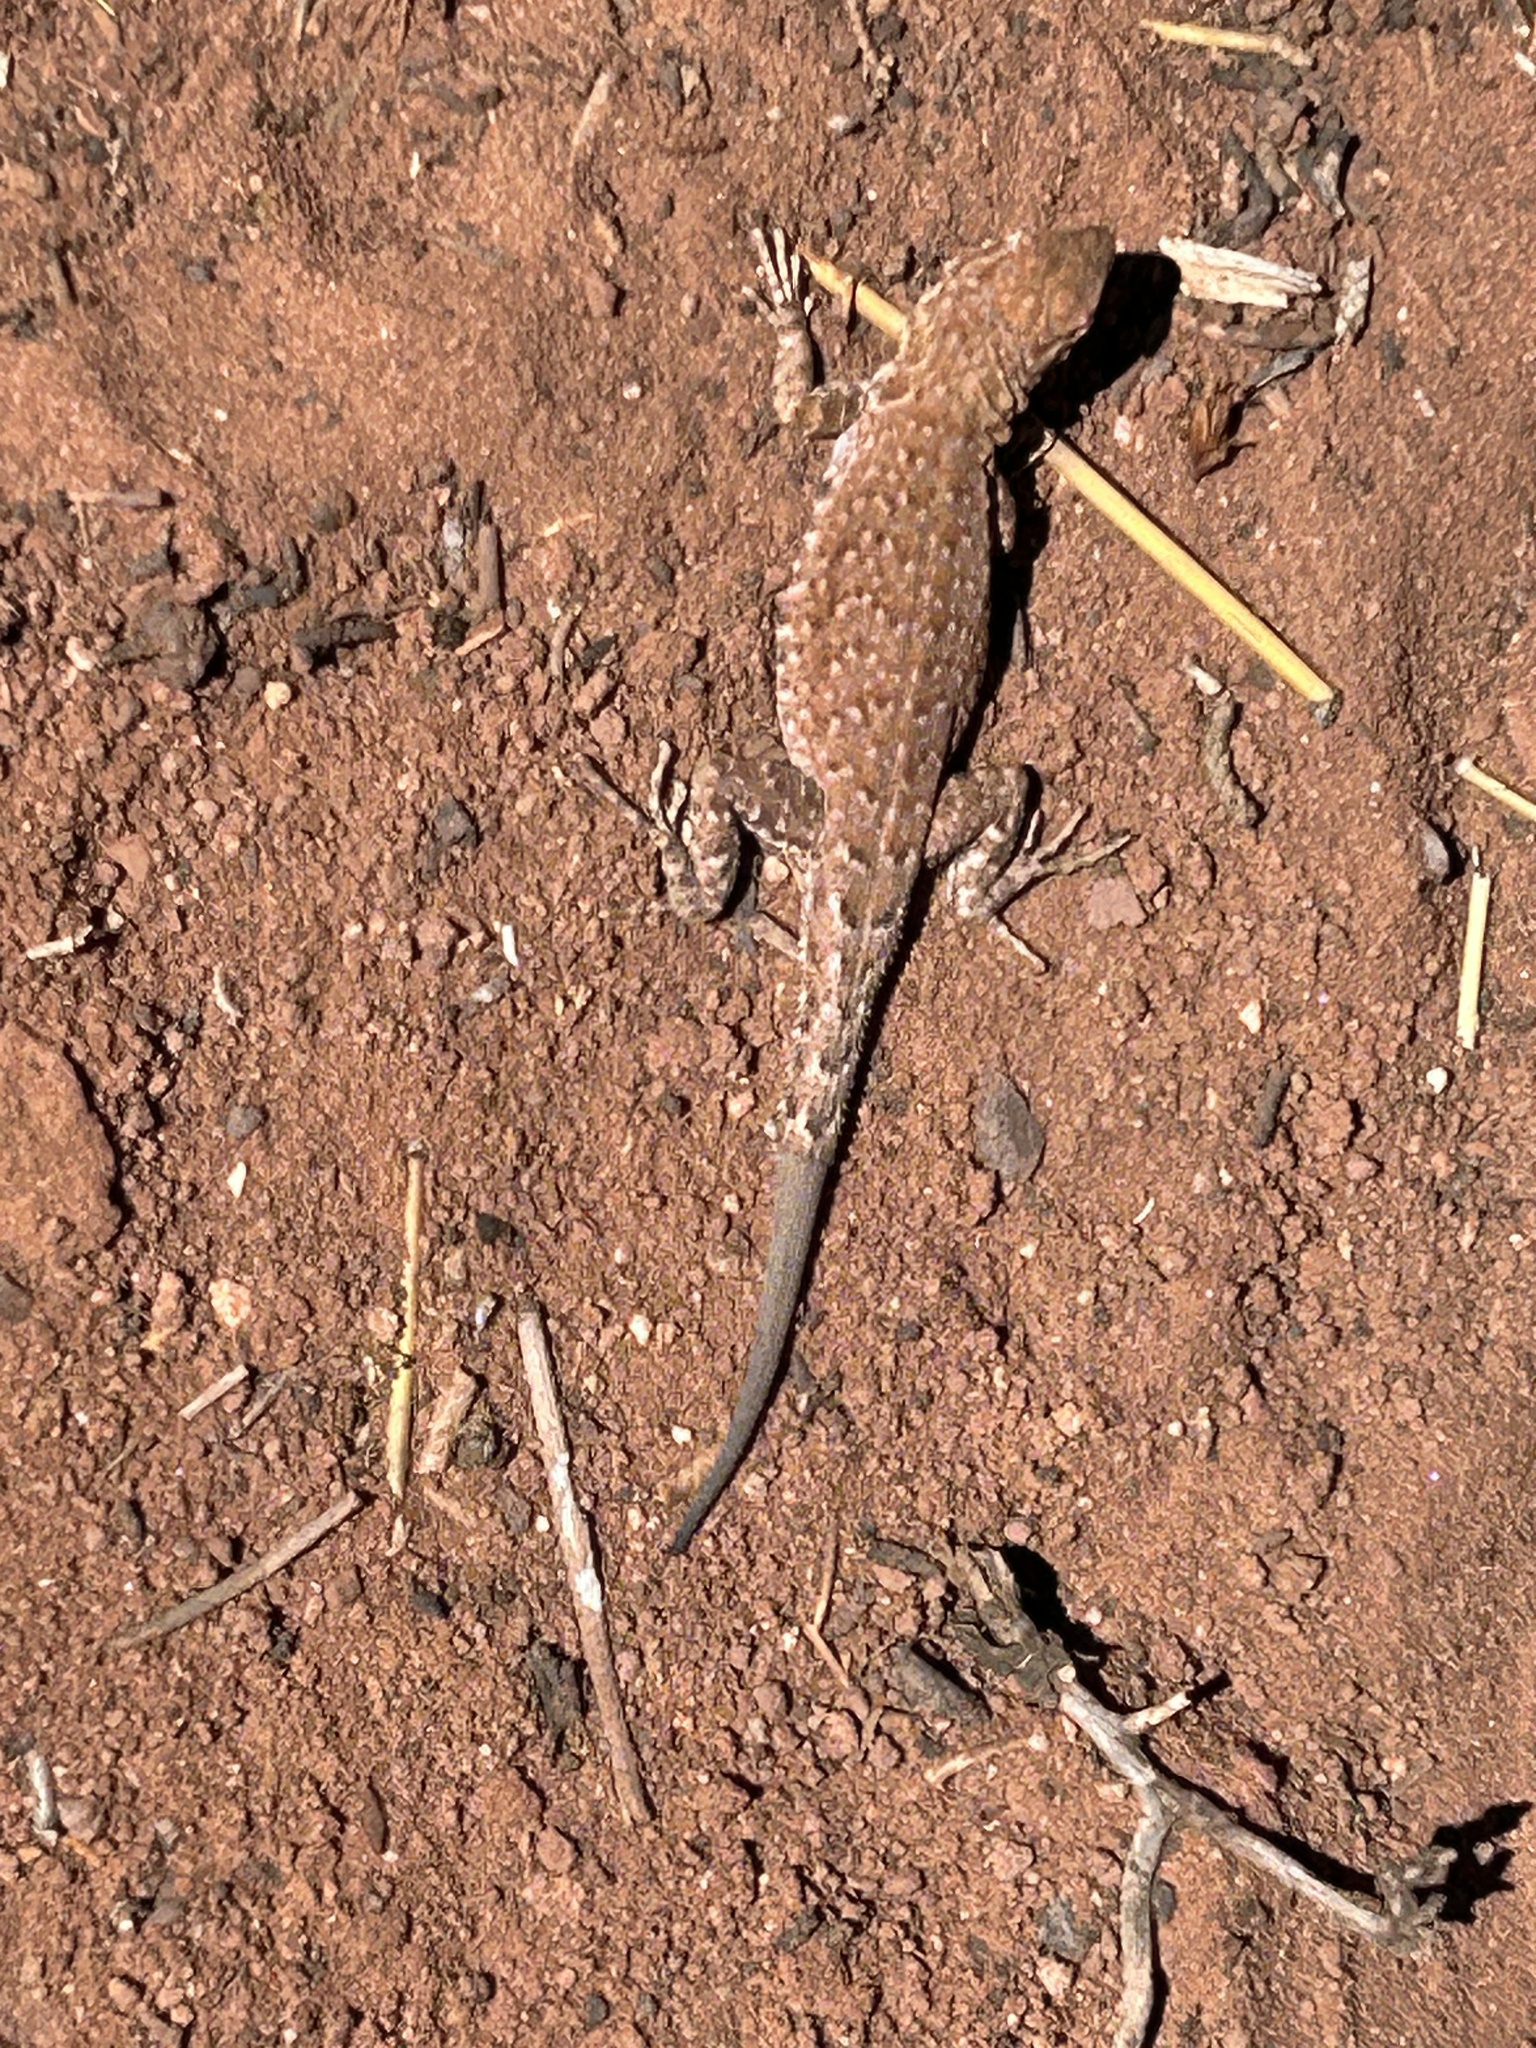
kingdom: Animalia
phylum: Chordata
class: Squamata
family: Phrynosomatidae
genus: Uta
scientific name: Uta stansburiana
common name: Side-blotched lizard
